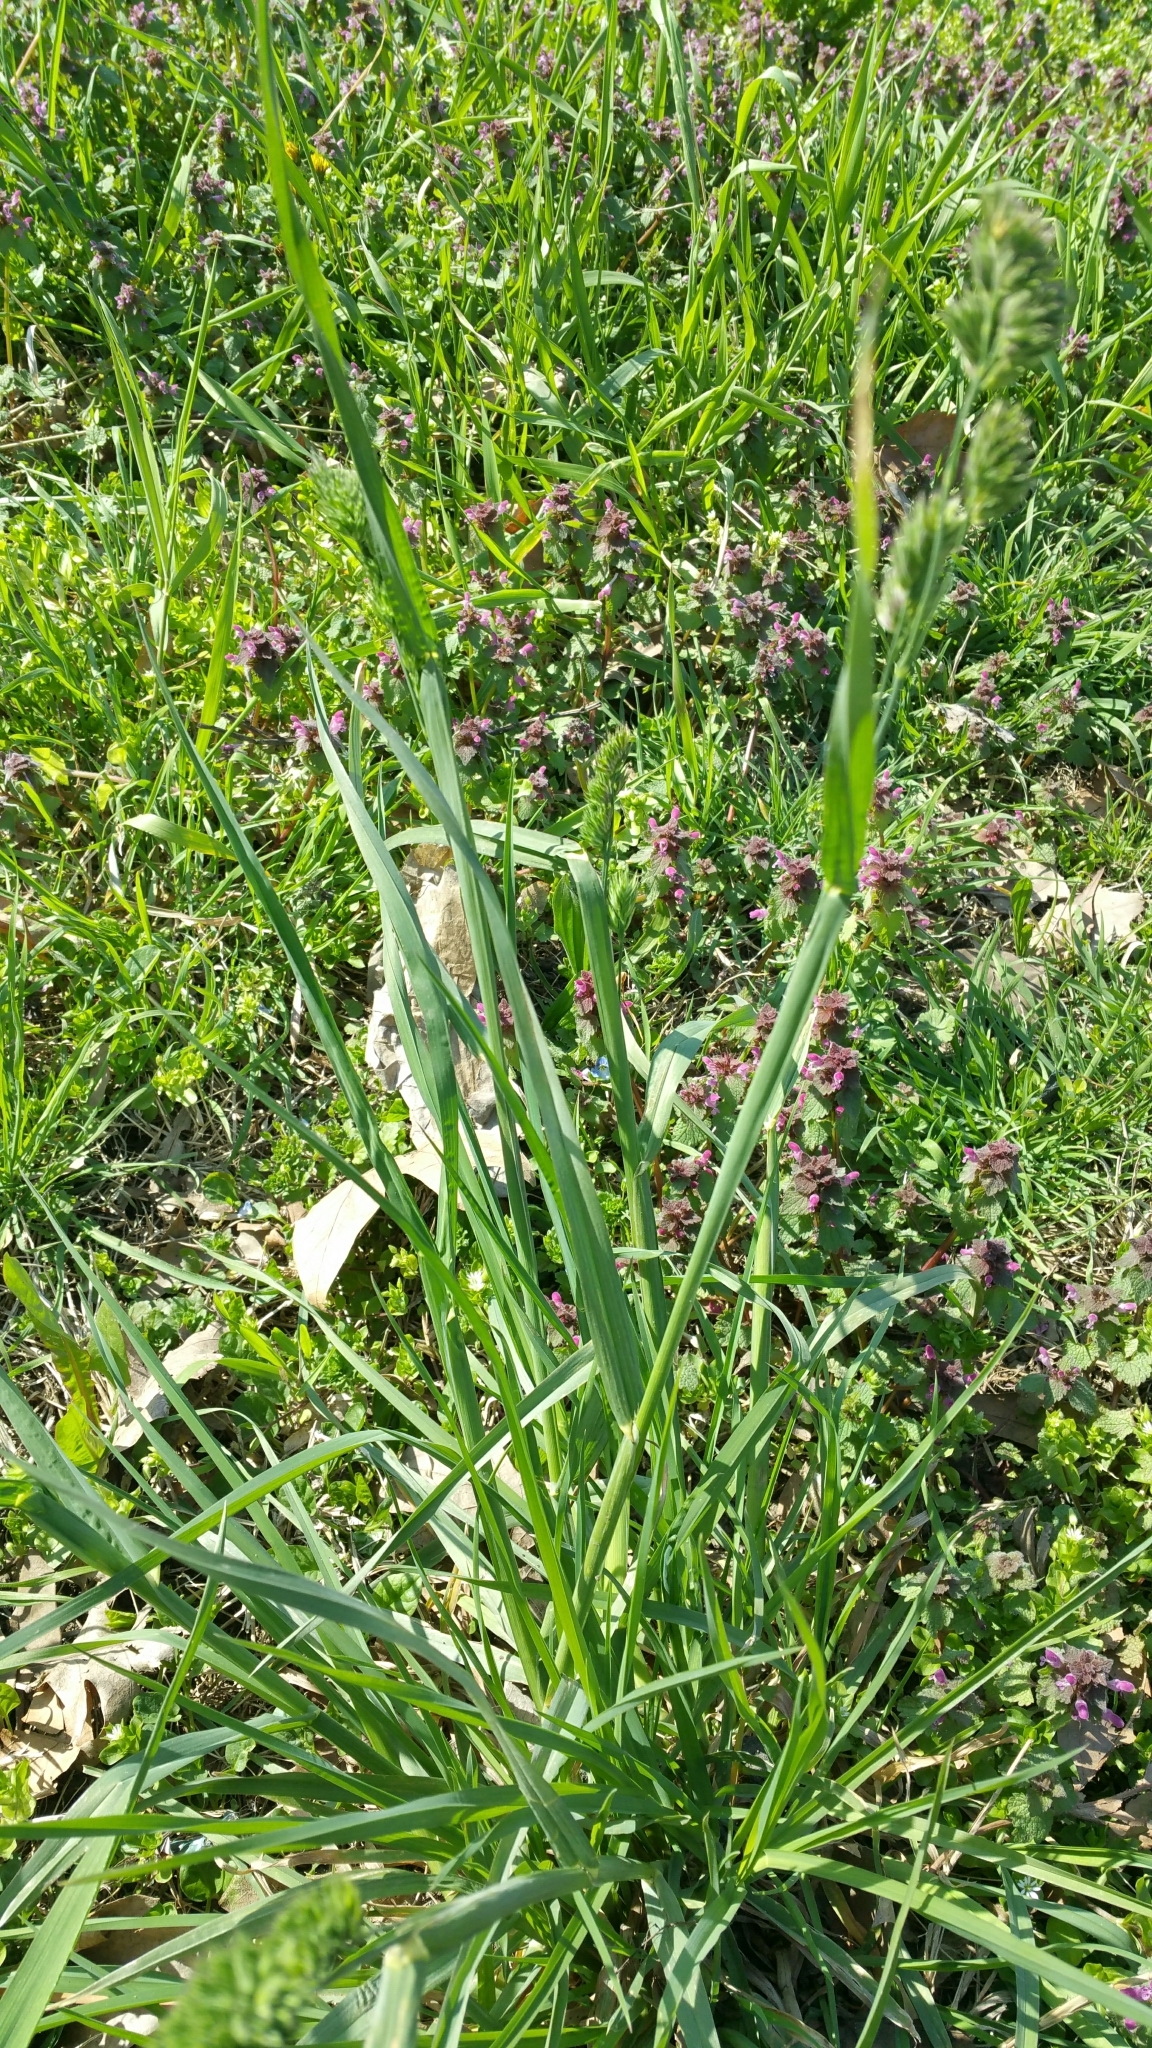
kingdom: Plantae
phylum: Tracheophyta
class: Liliopsida
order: Poales
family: Poaceae
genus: Dactylis
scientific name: Dactylis glomerata
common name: Orchardgrass
